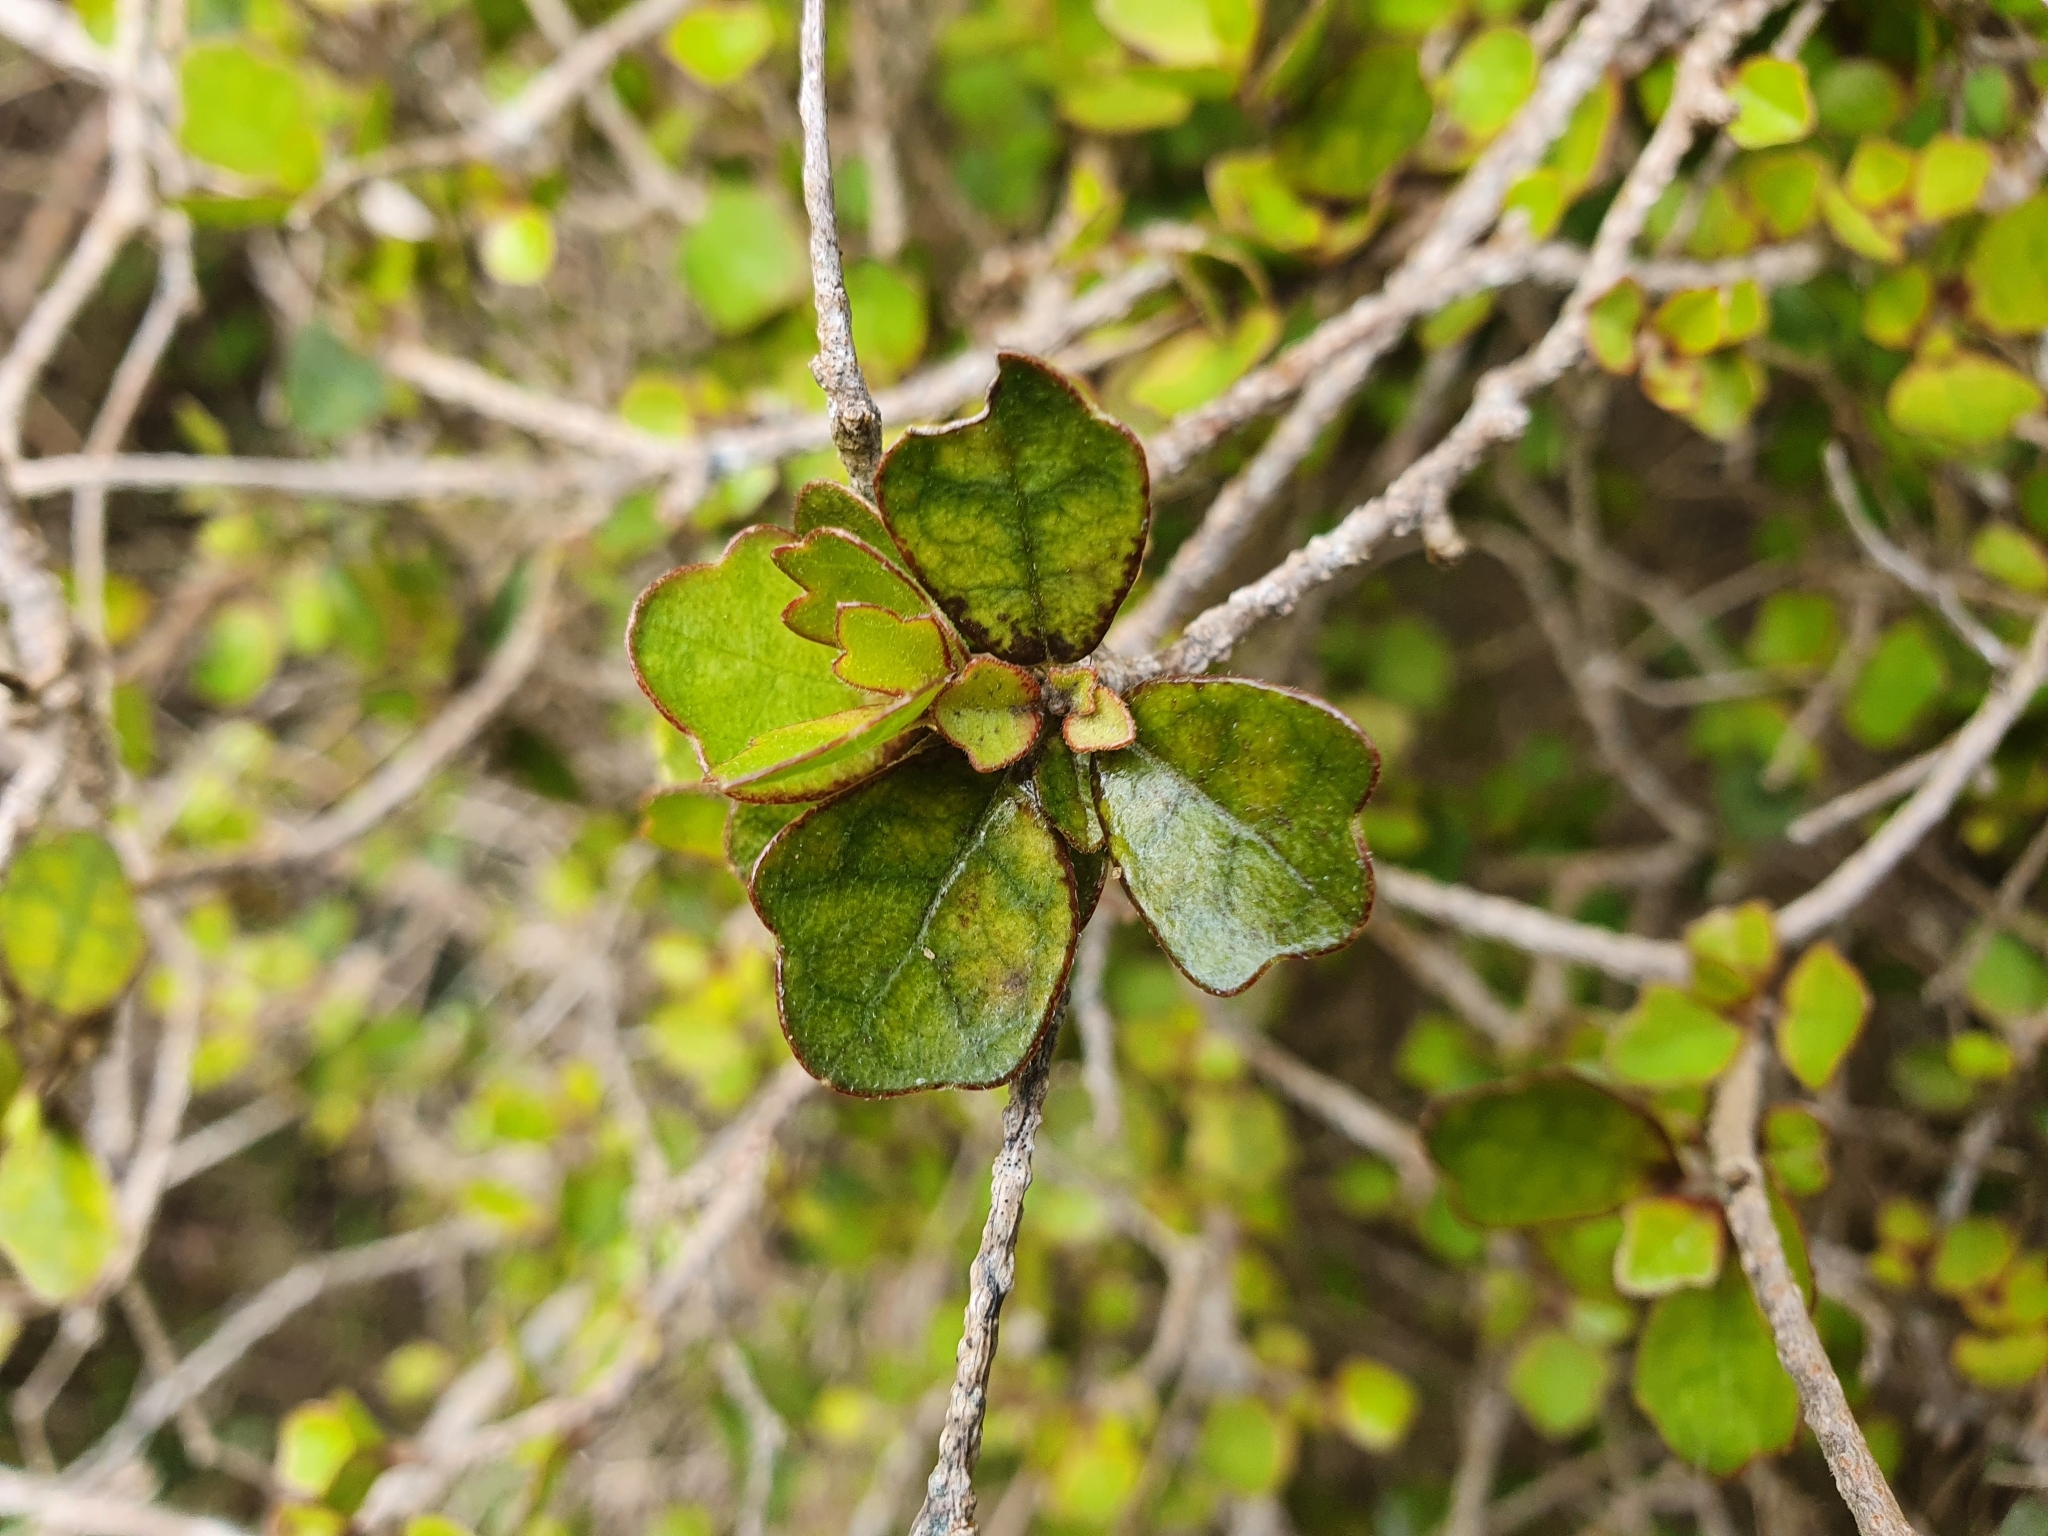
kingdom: Plantae
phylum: Tracheophyta
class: Magnoliopsida
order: Apiales
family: Pennantiaceae
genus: Pennantia
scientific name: Pennantia corymbosa
